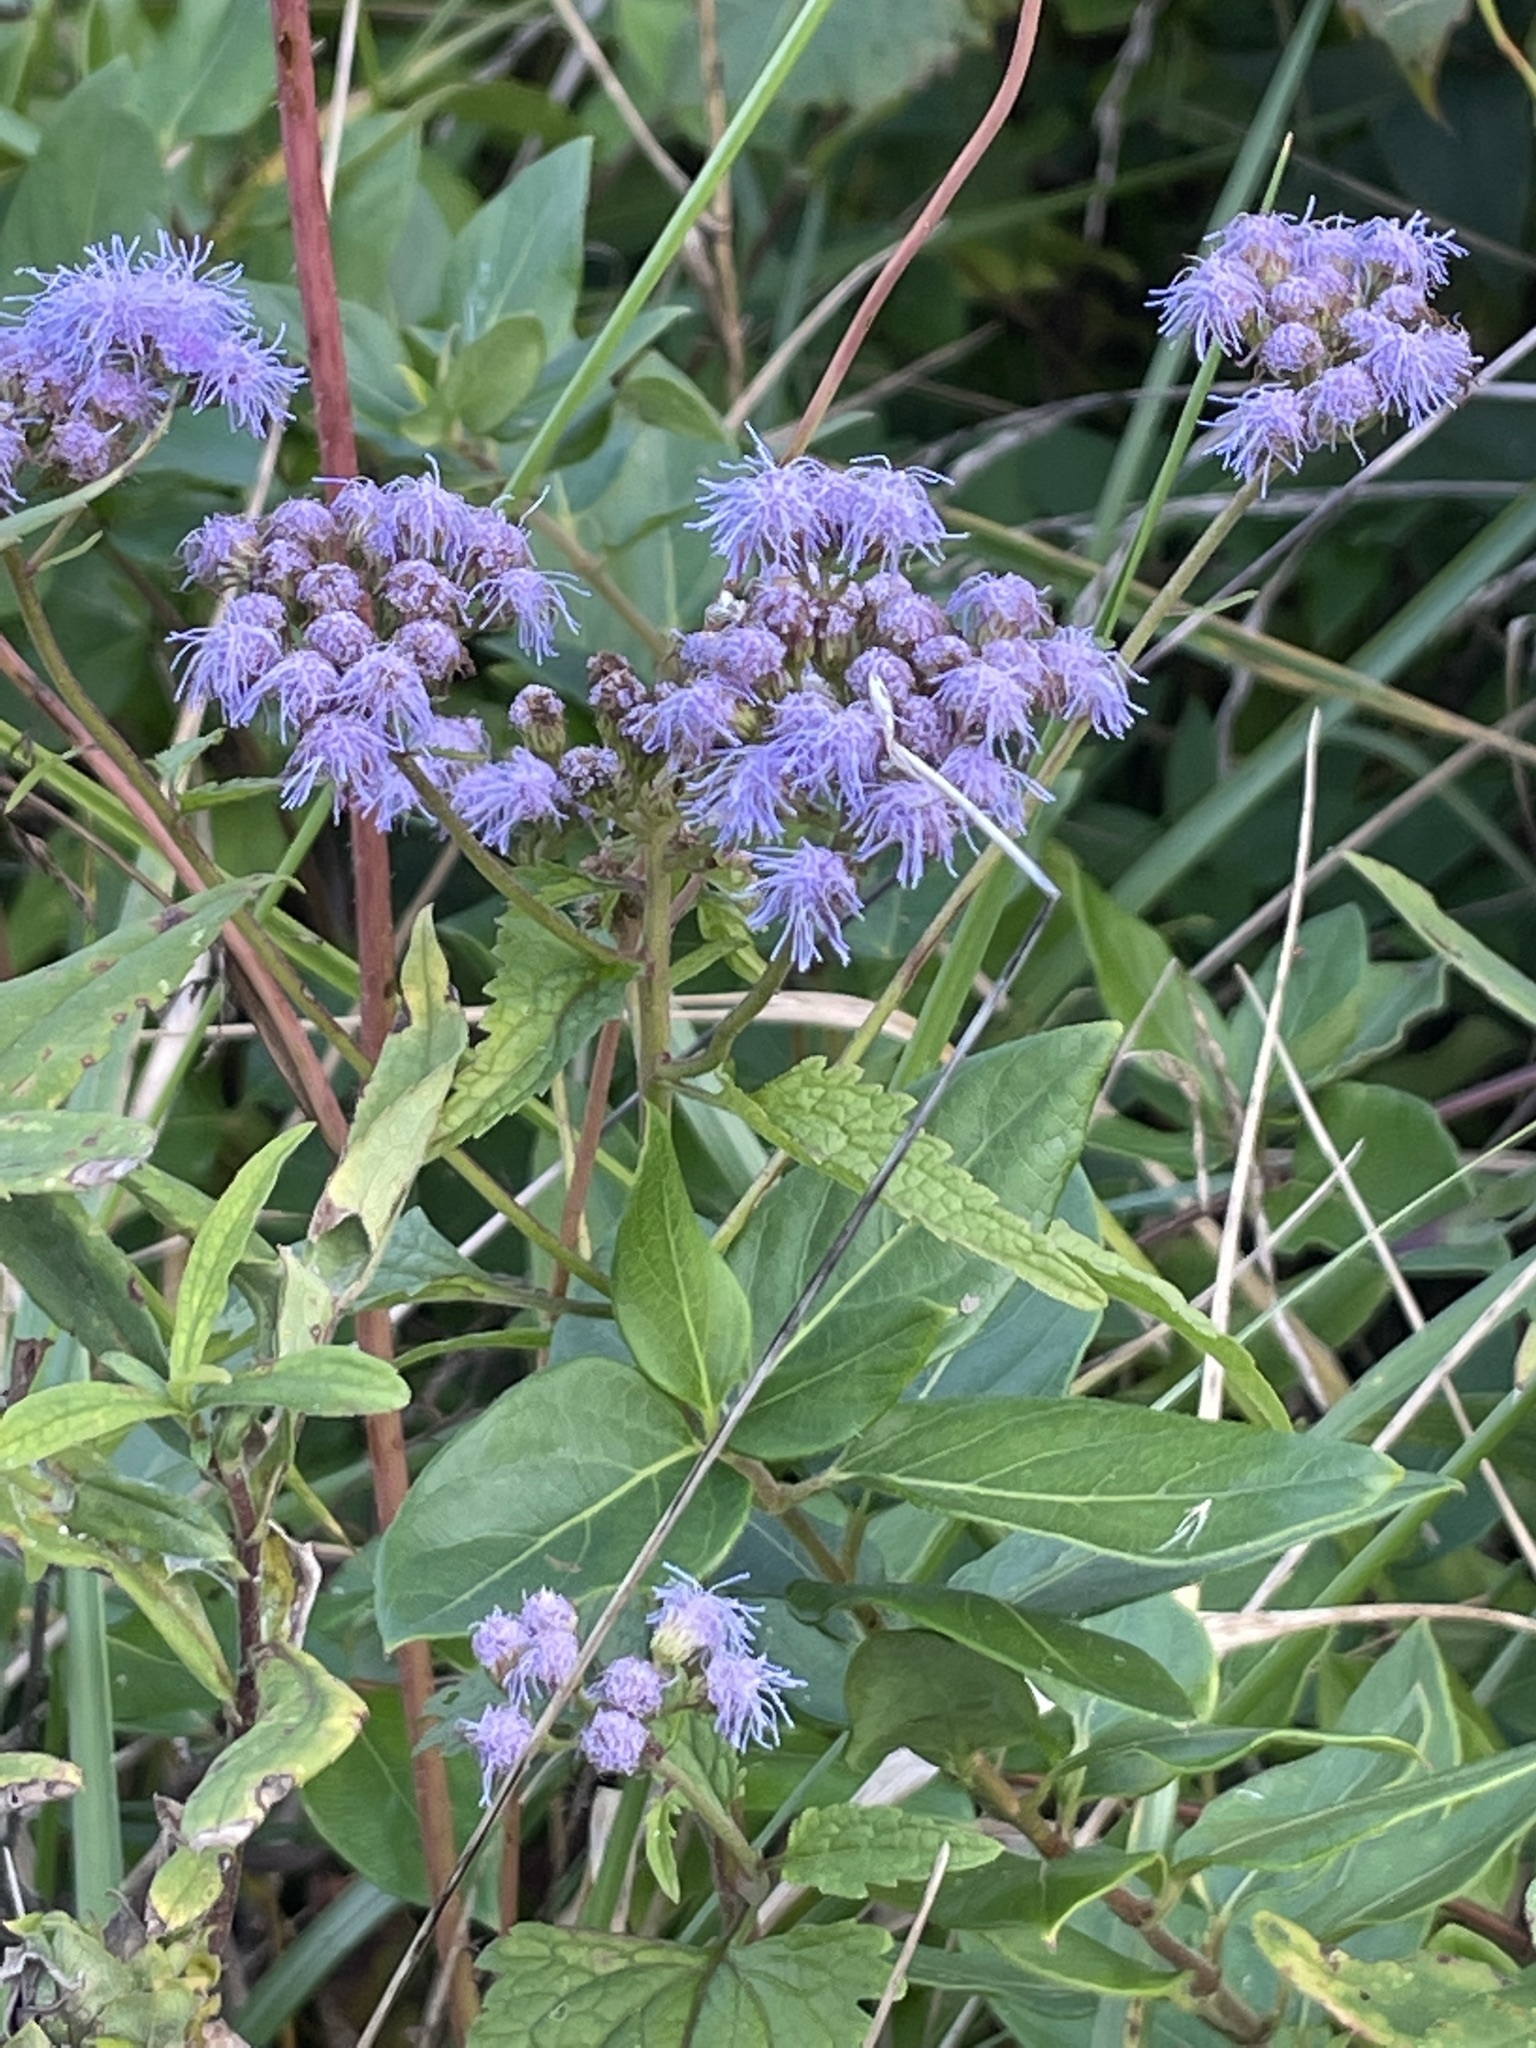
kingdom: Plantae
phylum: Tracheophyta
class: Magnoliopsida
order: Asterales
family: Asteraceae
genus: Conoclinium
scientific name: Conoclinium coelestinum
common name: Blue mistflower
